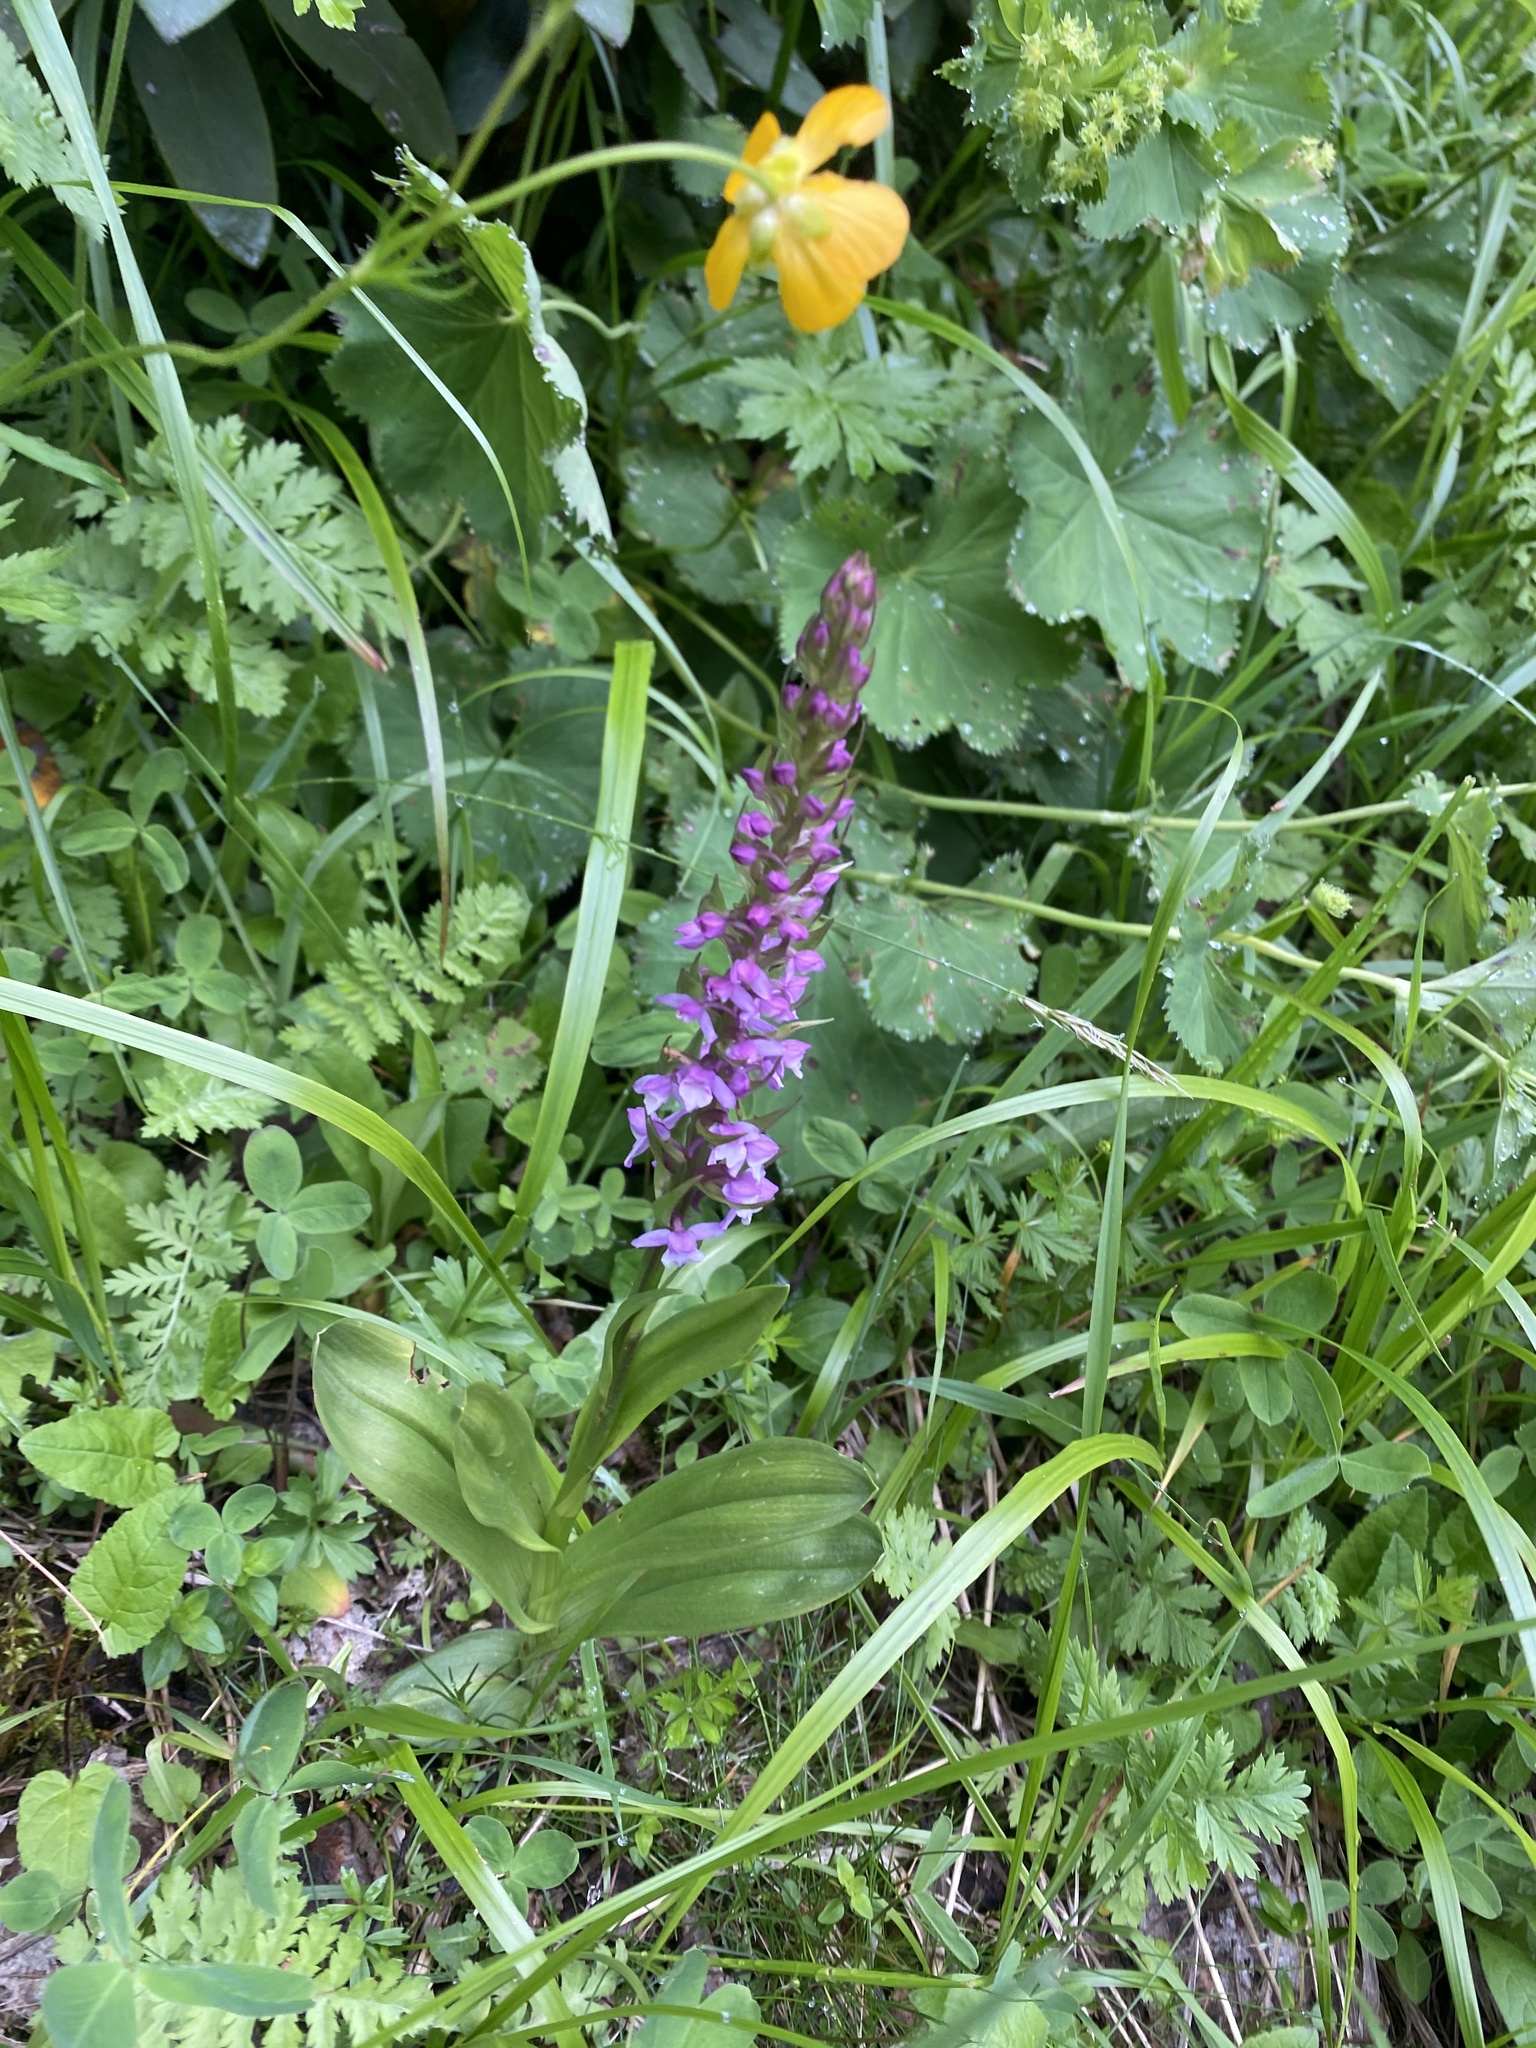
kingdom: Plantae
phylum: Tracheophyta
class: Liliopsida
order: Asparagales
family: Orchidaceae
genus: Gymnadenia
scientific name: Gymnadenia conopsea
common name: Fragrant orchid
